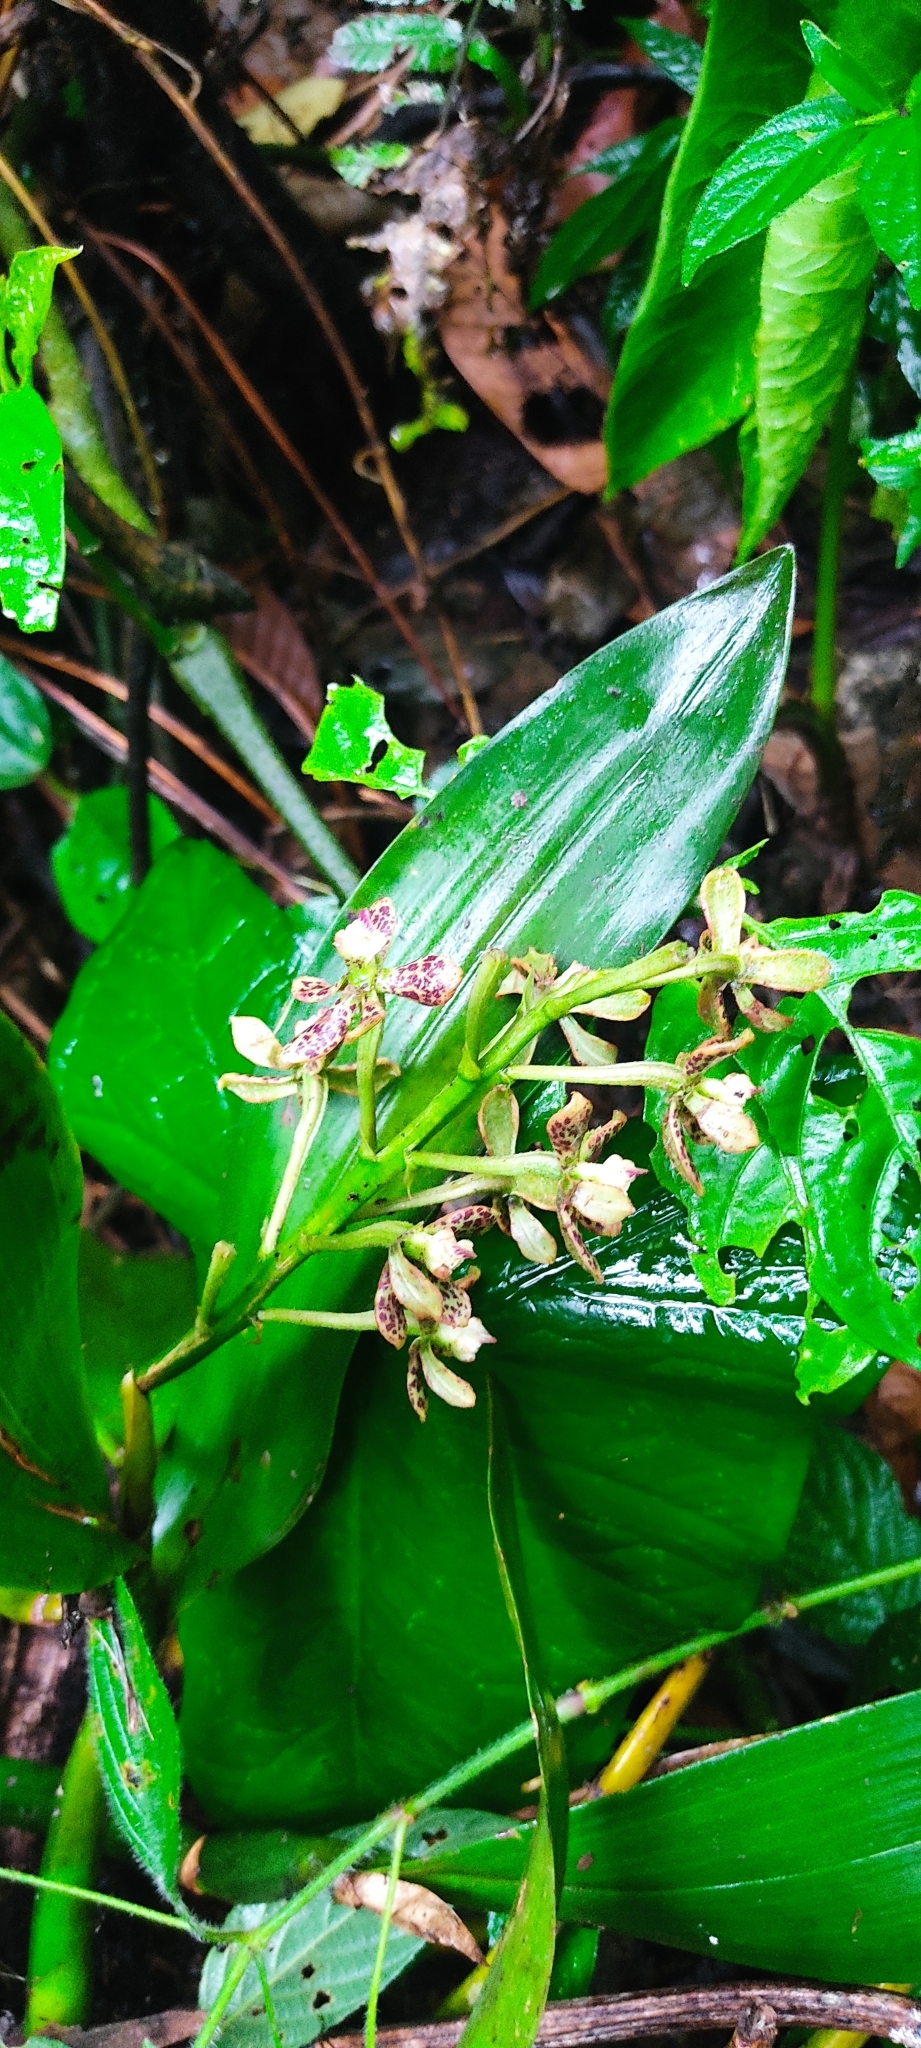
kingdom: Plantae
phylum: Tracheophyta
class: Liliopsida
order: Asparagales
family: Orchidaceae
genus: Prosthechea
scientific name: Prosthechea crassilabia
